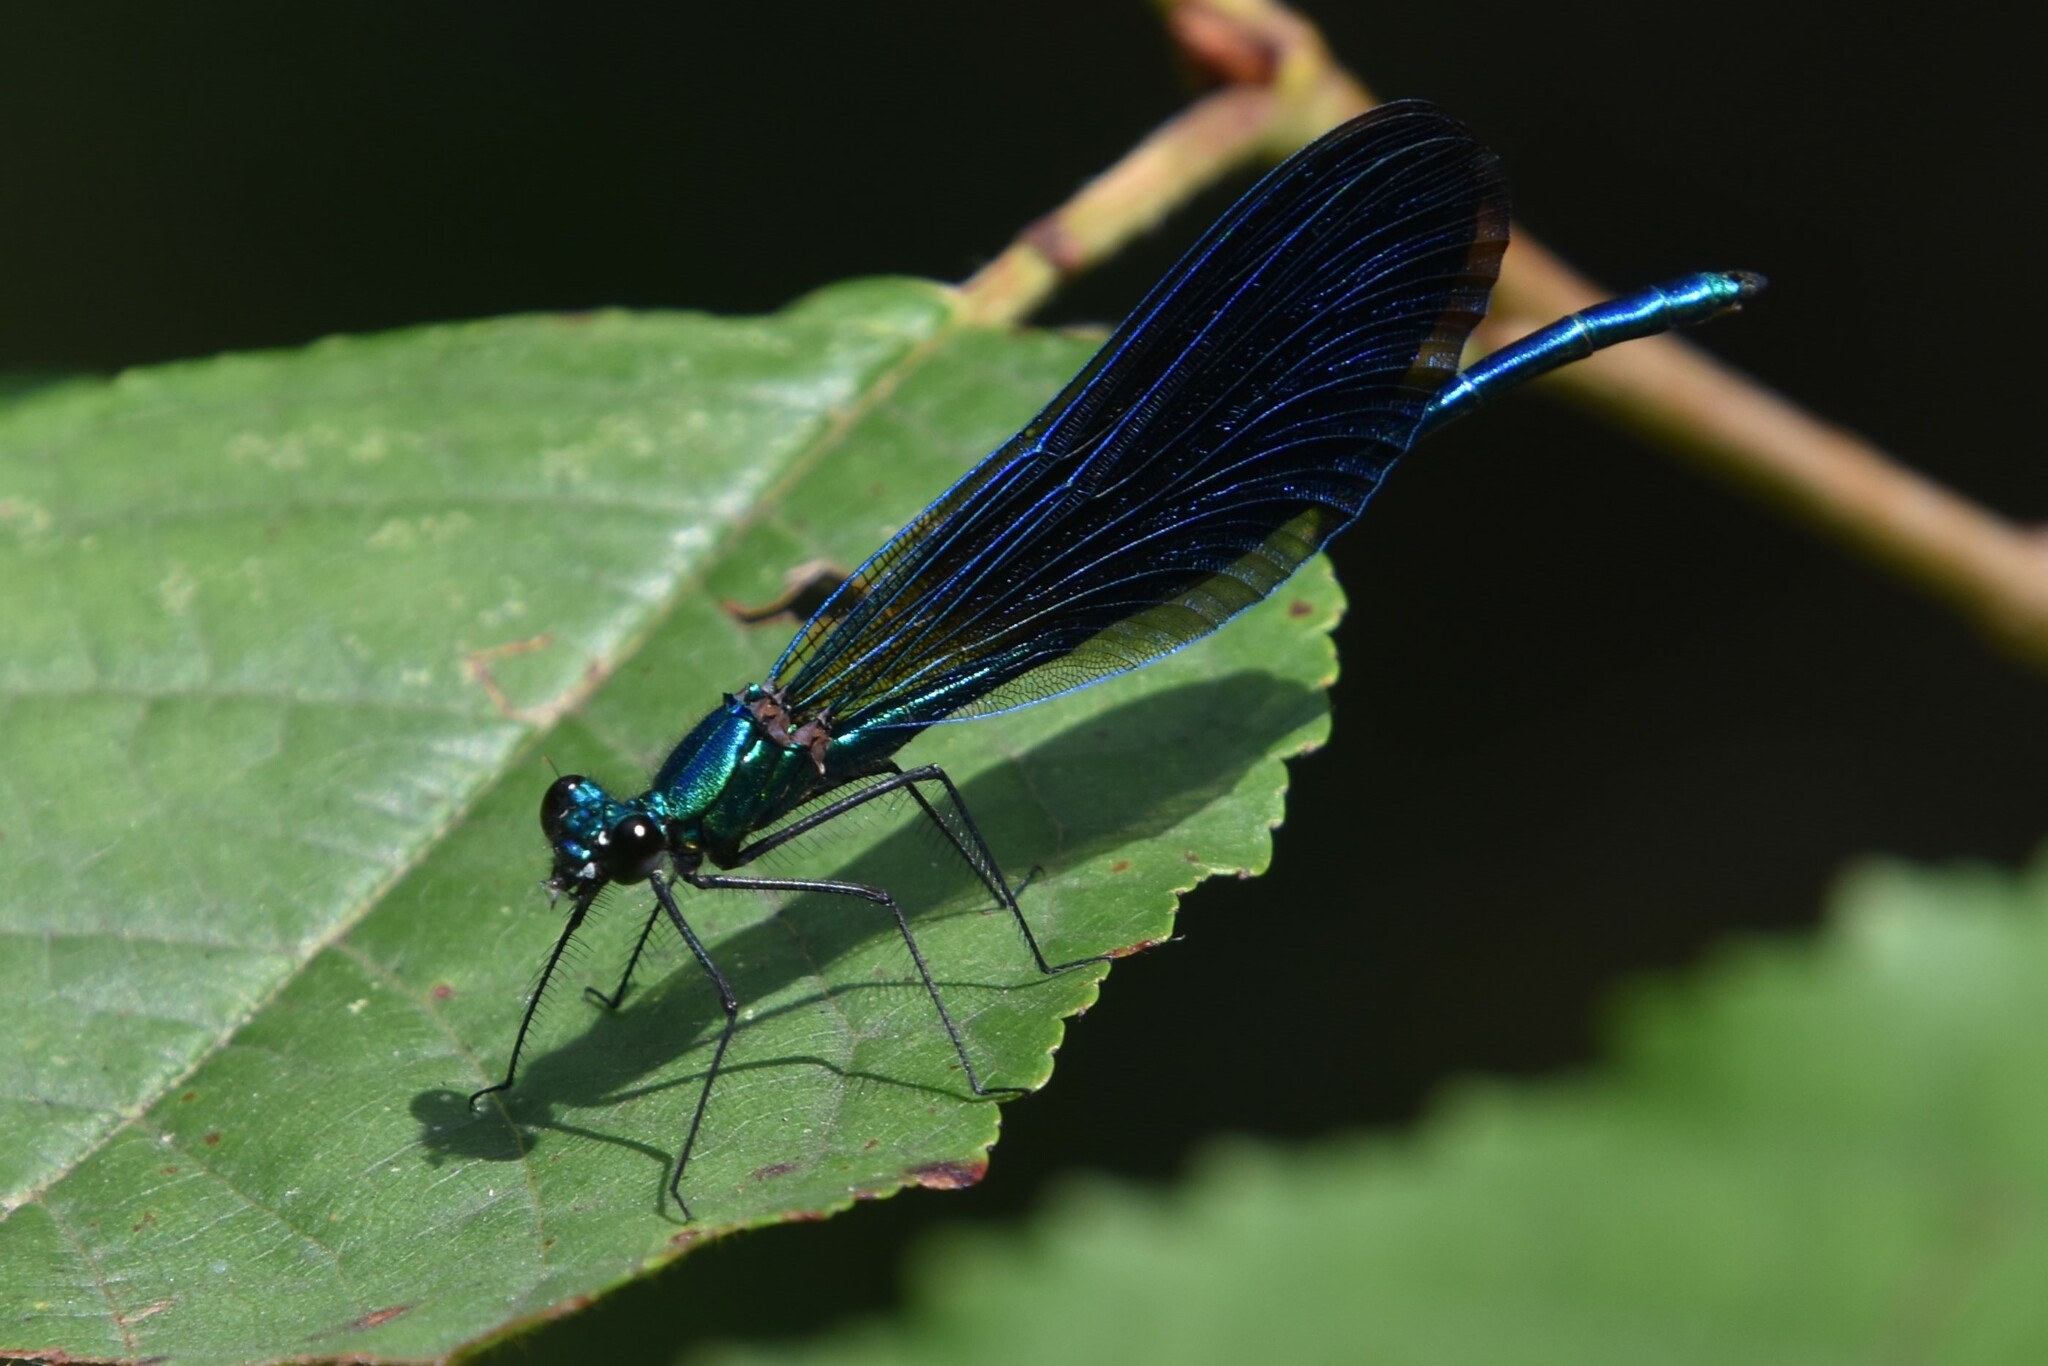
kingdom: Animalia
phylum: Arthropoda
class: Insecta
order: Odonata
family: Calopterygidae
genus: Calopteryx
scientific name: Calopteryx virgo
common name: Beautiful demoiselle
